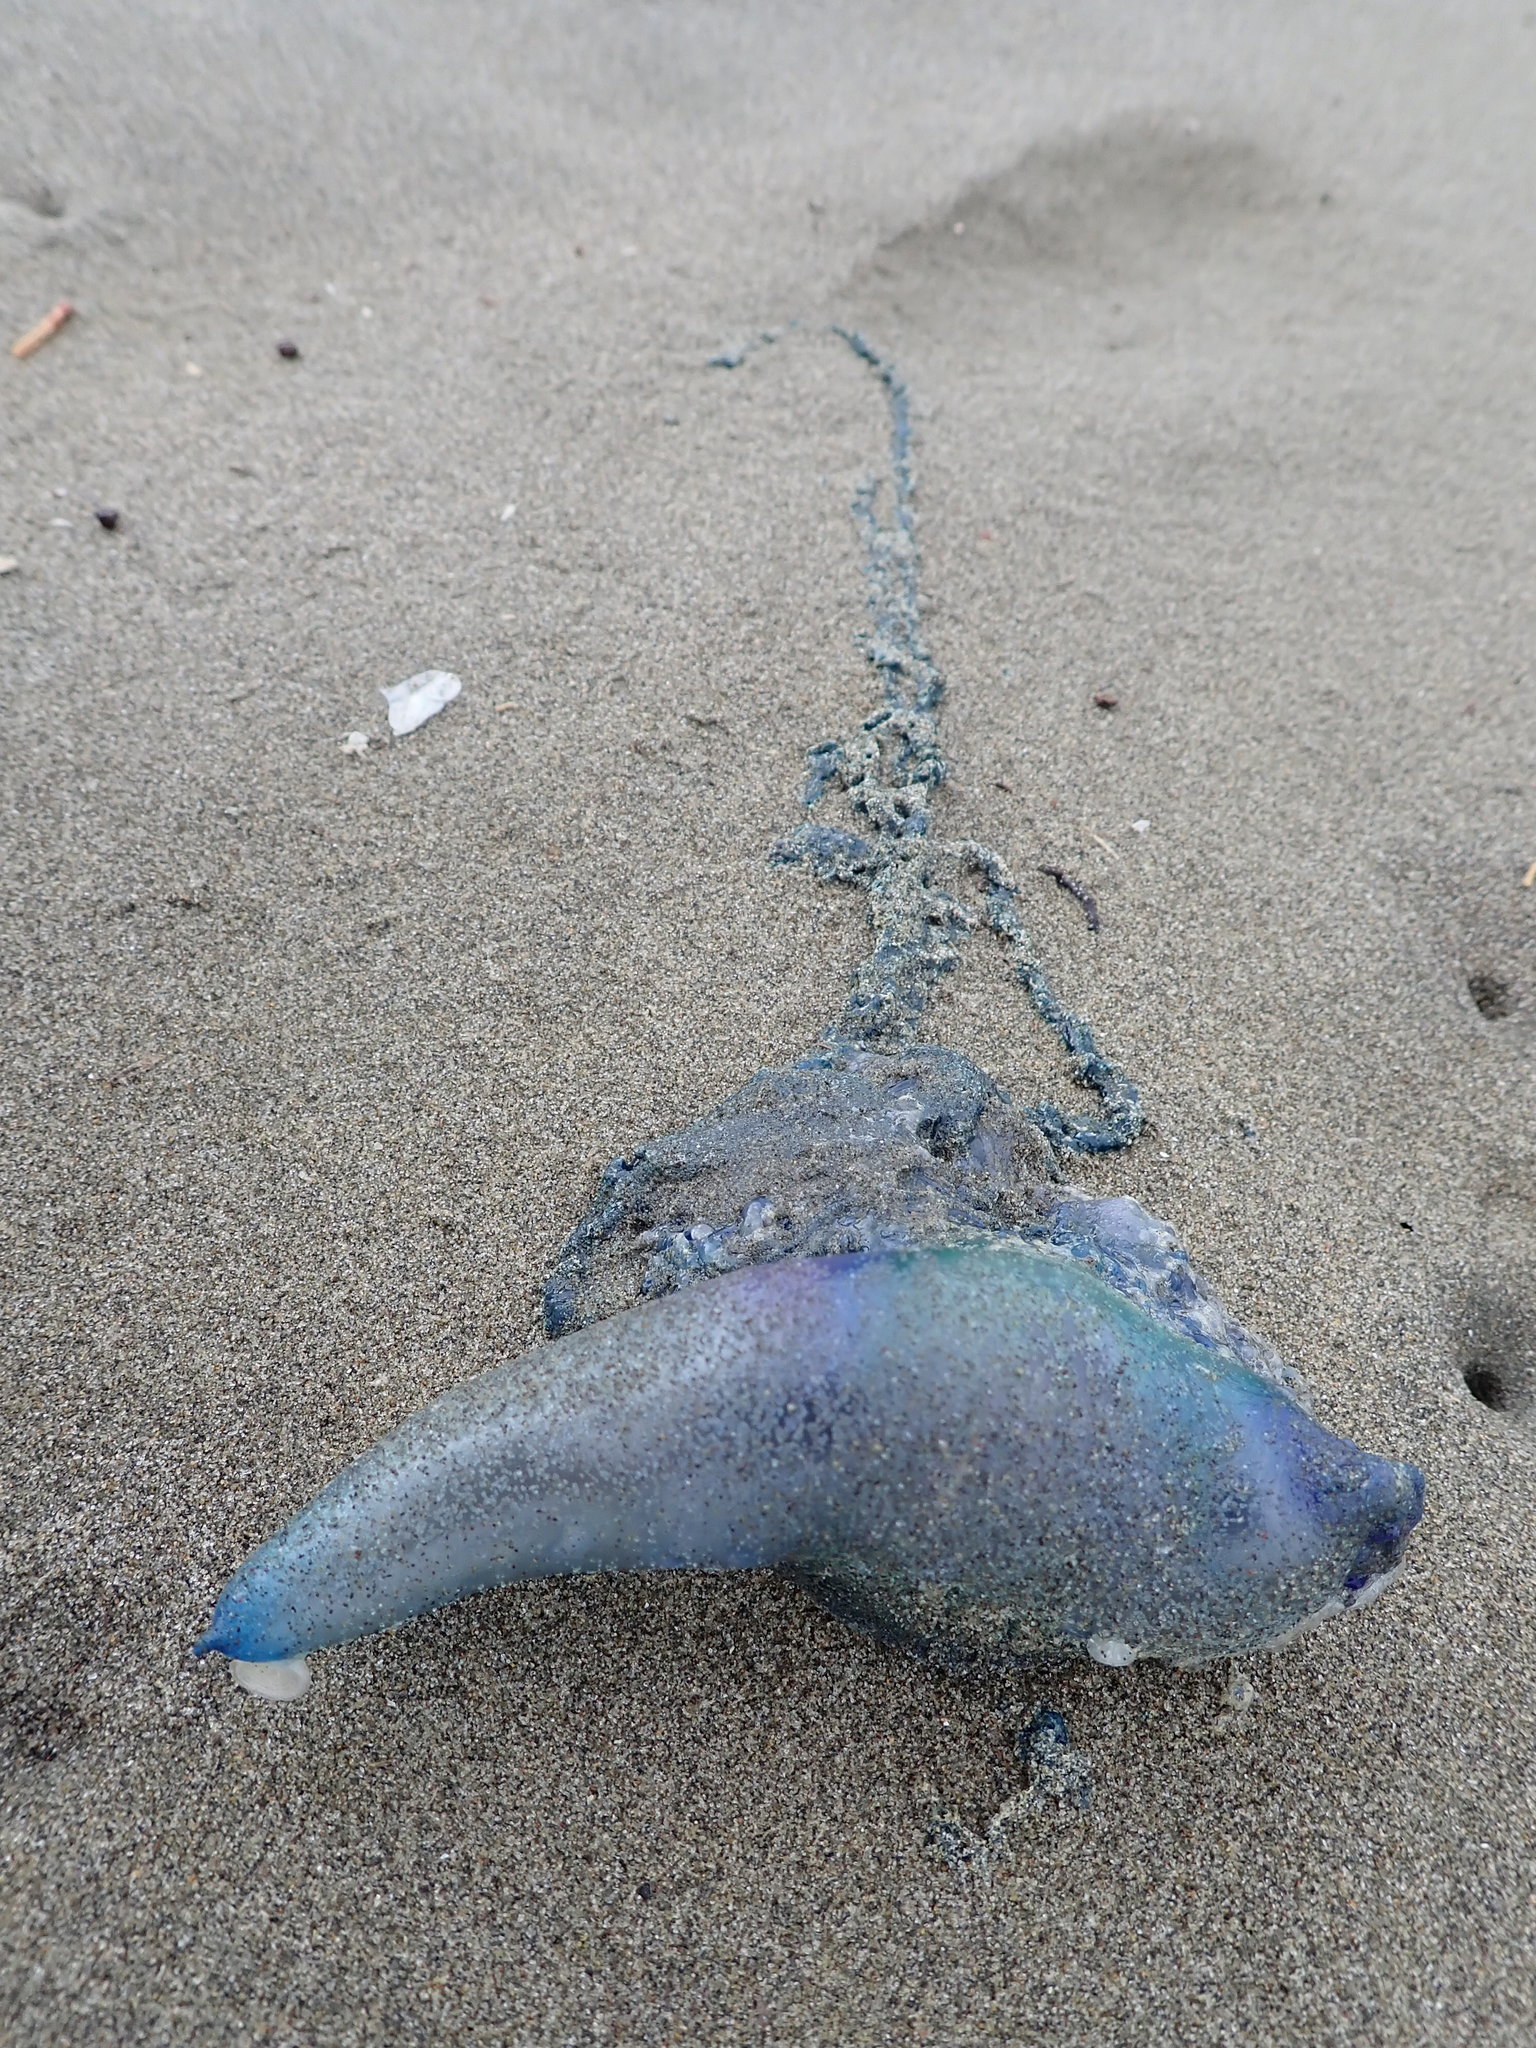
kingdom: Animalia
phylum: Cnidaria
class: Hydrozoa
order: Siphonophorae
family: Physaliidae
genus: Physalia
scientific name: Physalia physalis
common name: Portuguese man-of-war
